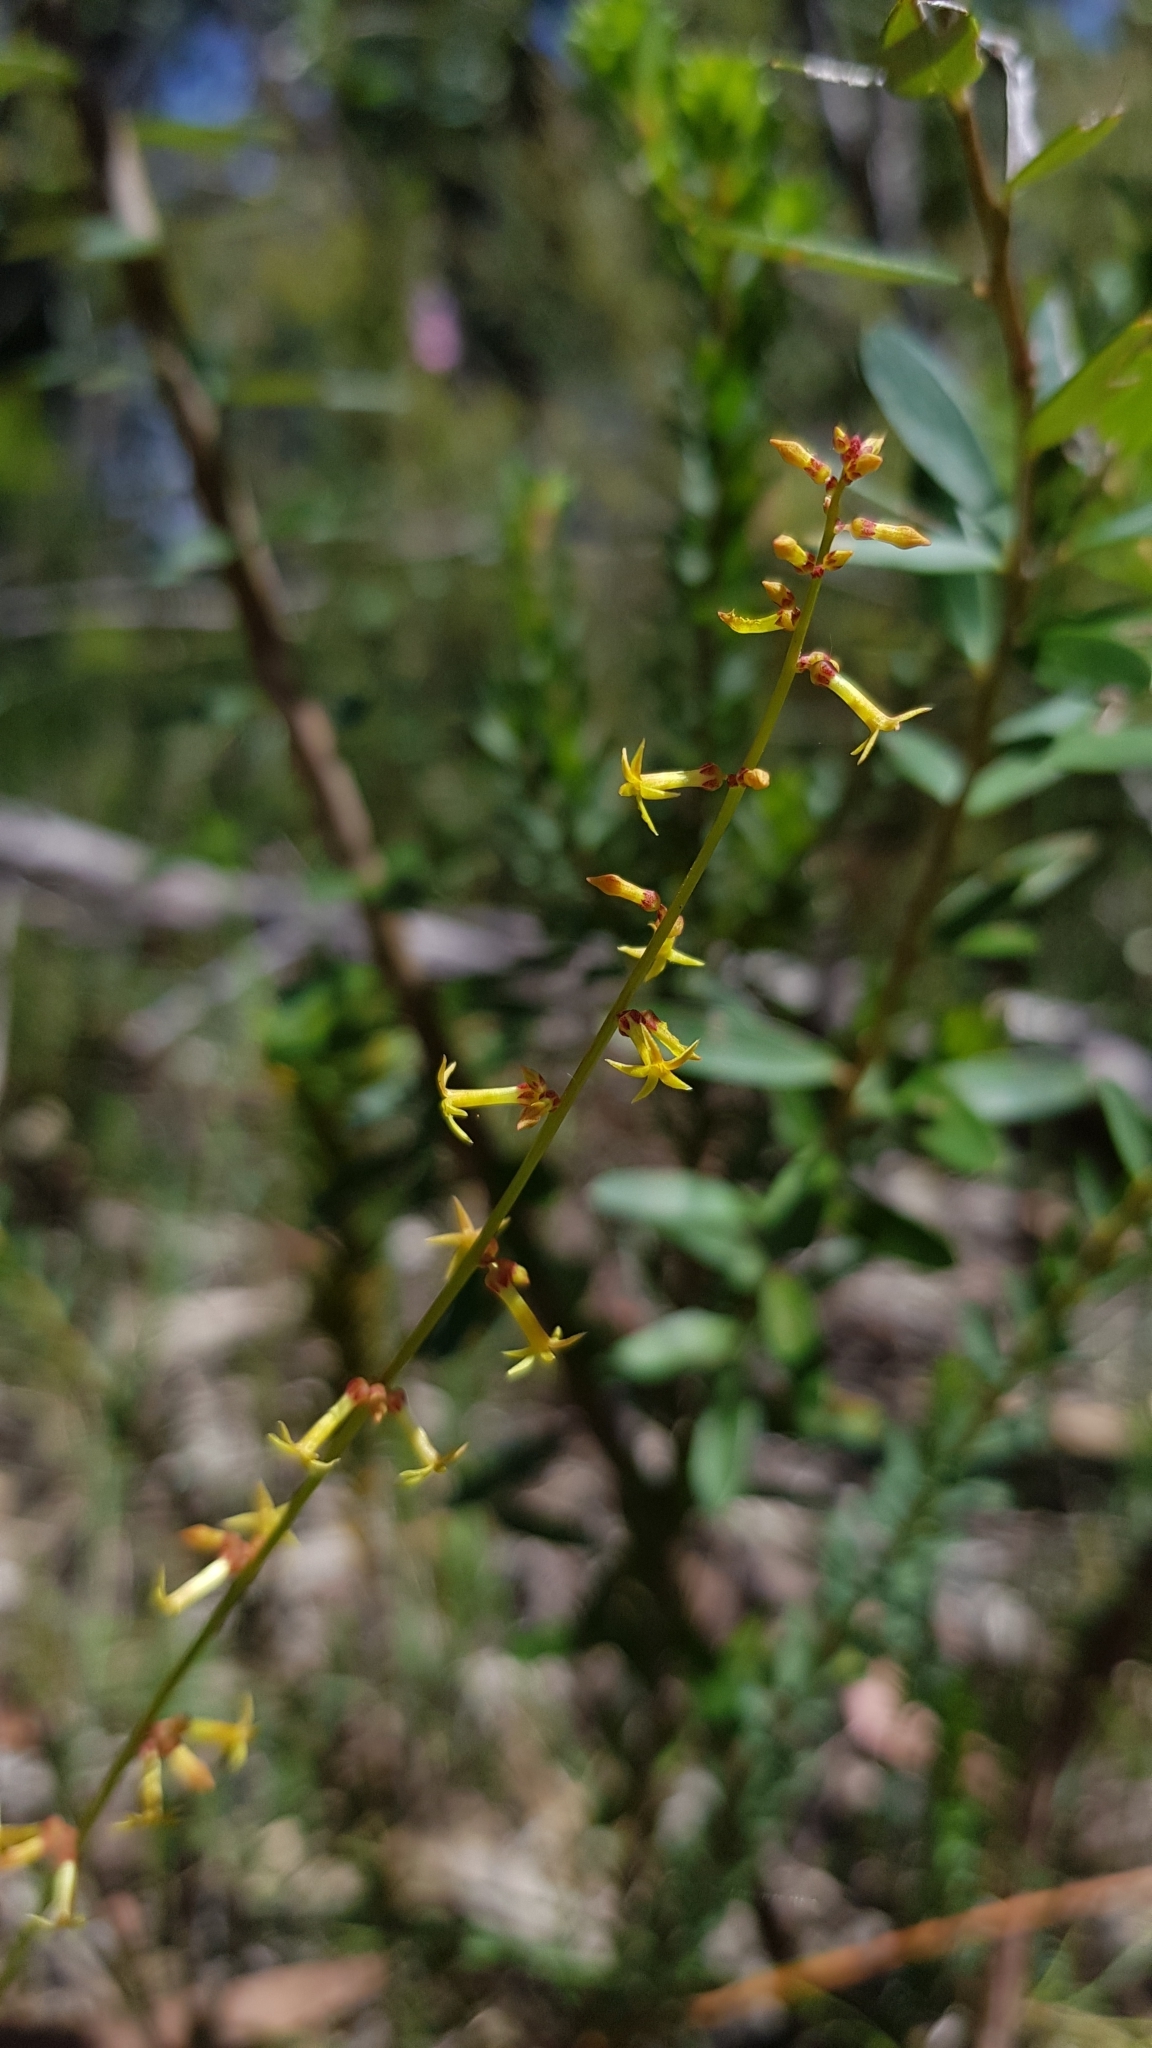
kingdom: Plantae
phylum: Tracheophyta
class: Magnoliopsida
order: Celastrales
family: Celastraceae
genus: Stackhousia
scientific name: Stackhousia viminea
